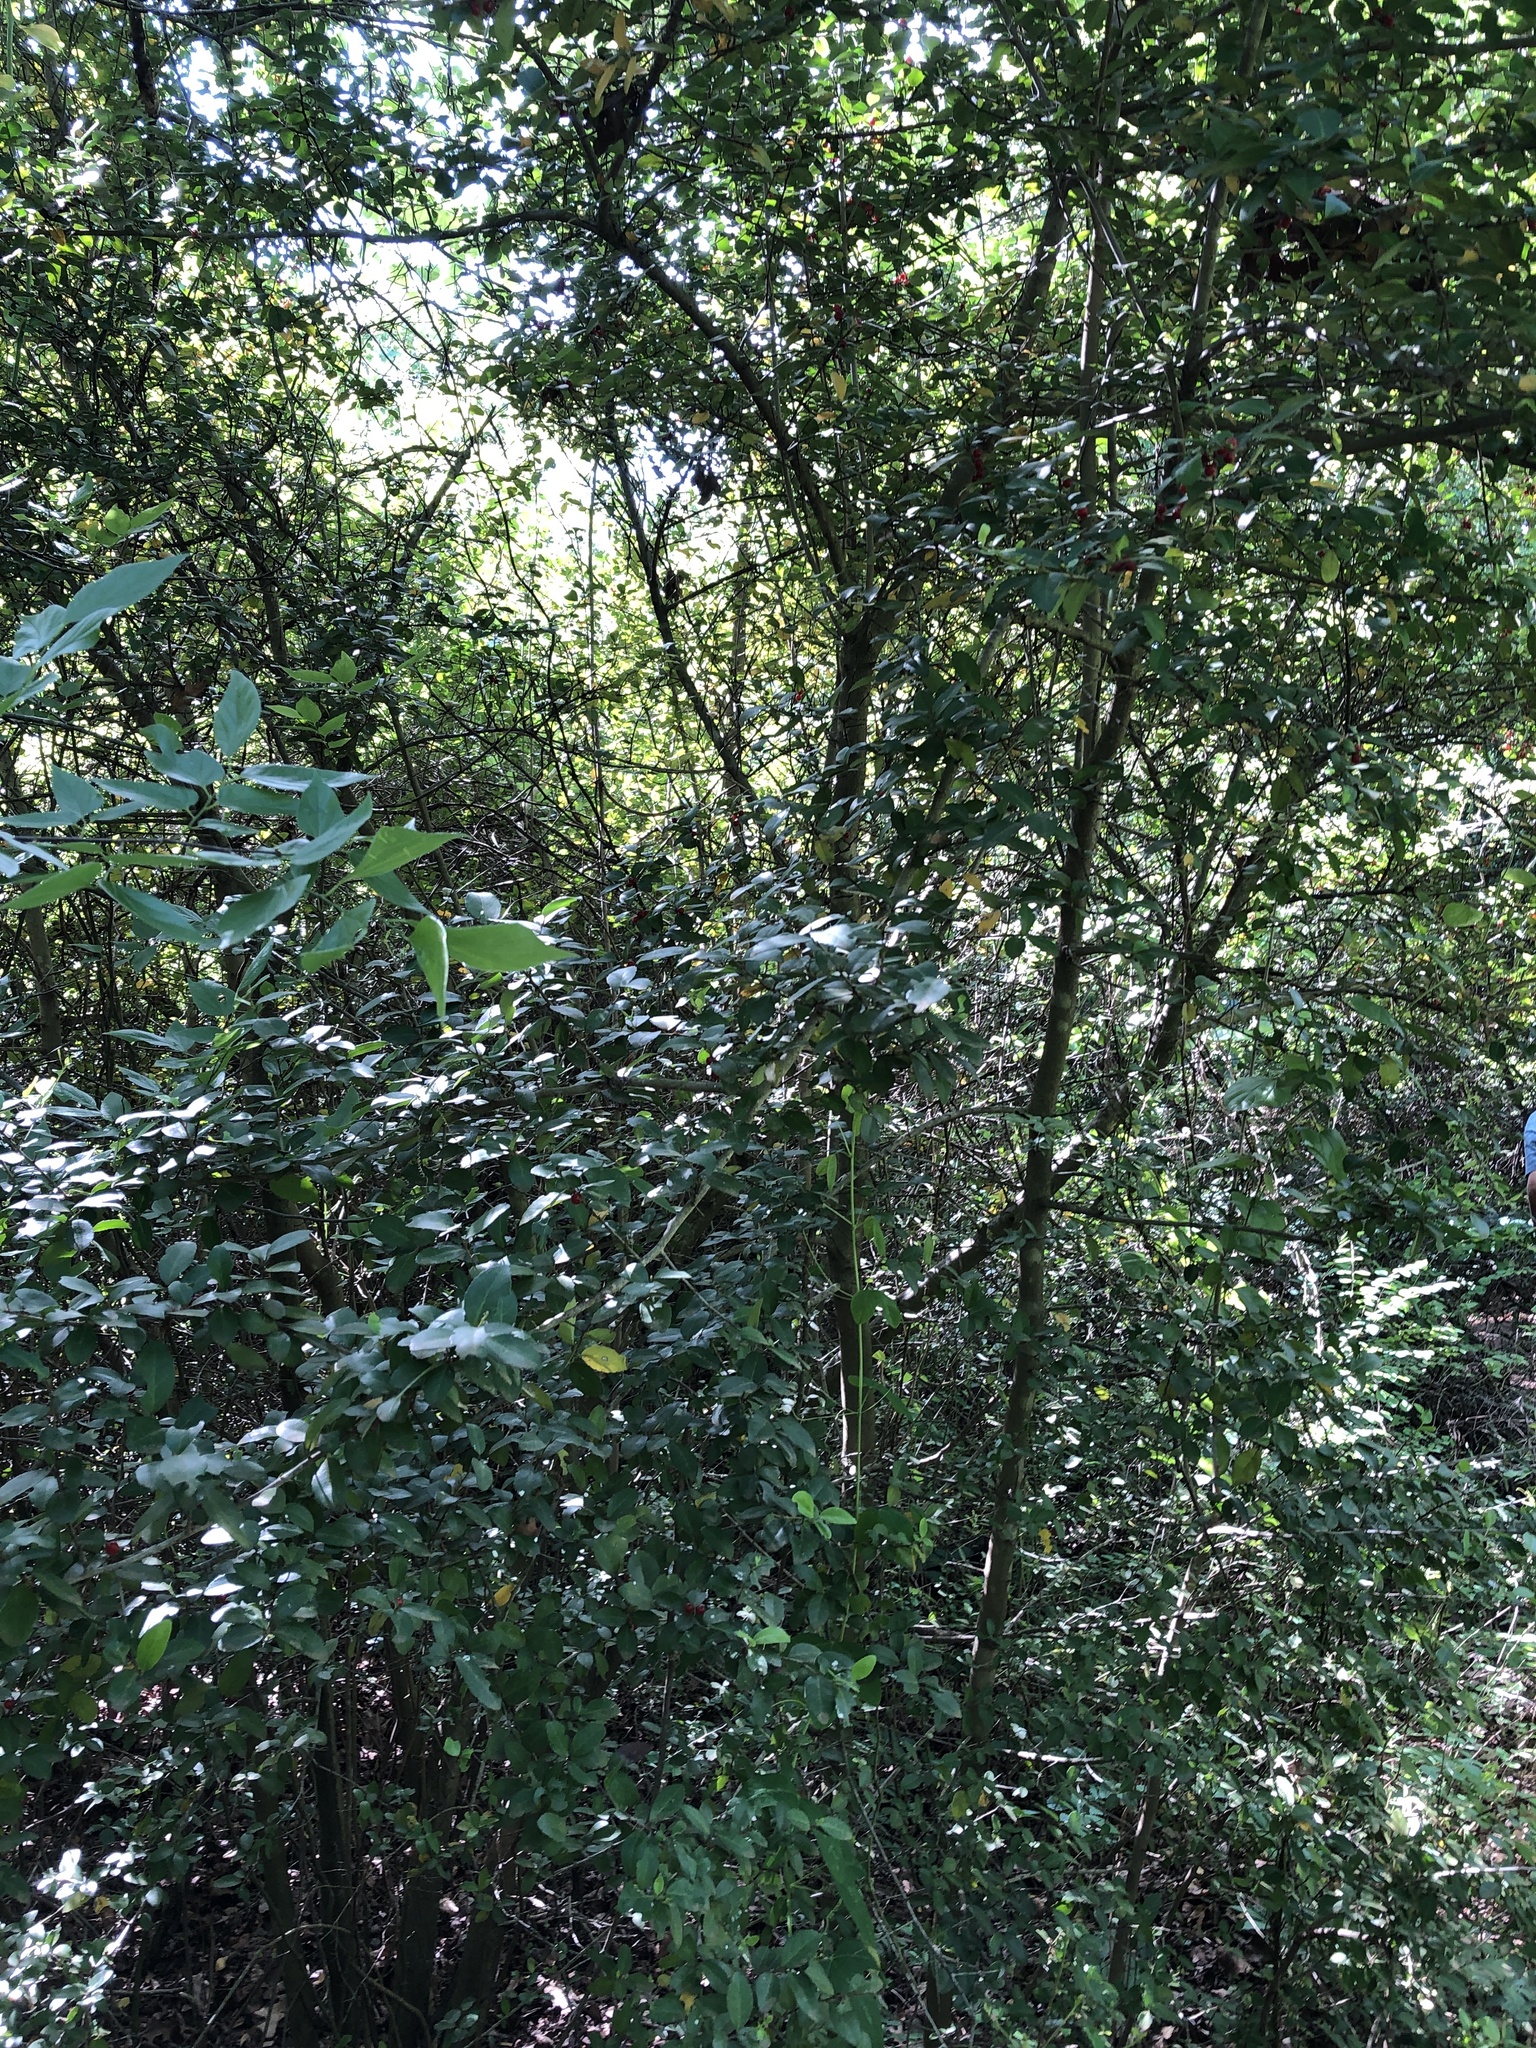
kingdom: Plantae
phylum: Tracheophyta
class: Magnoliopsida
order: Aquifoliales
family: Aquifoliaceae
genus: Ilex
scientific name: Ilex vomitoria
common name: Yaupon holly
